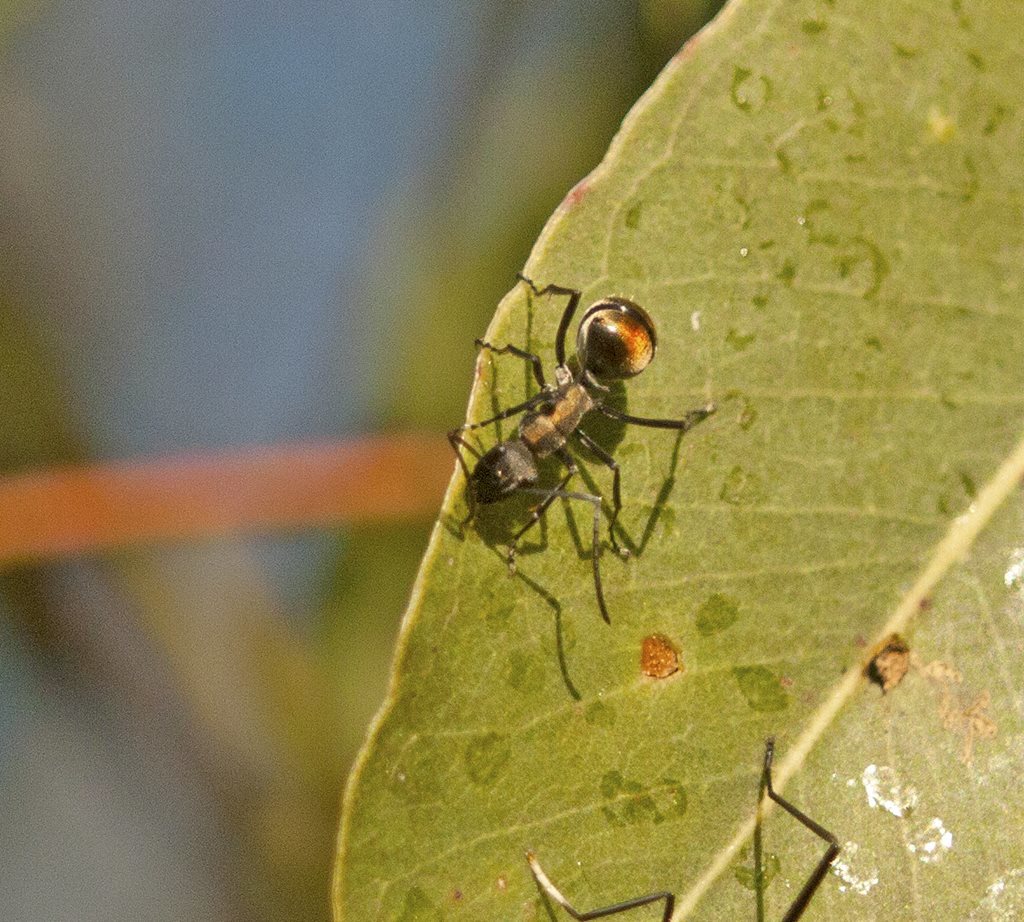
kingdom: Animalia
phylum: Arthropoda
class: Insecta
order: Hymenoptera
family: Formicidae
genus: Polyrhachis
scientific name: Polyrhachis ammon
